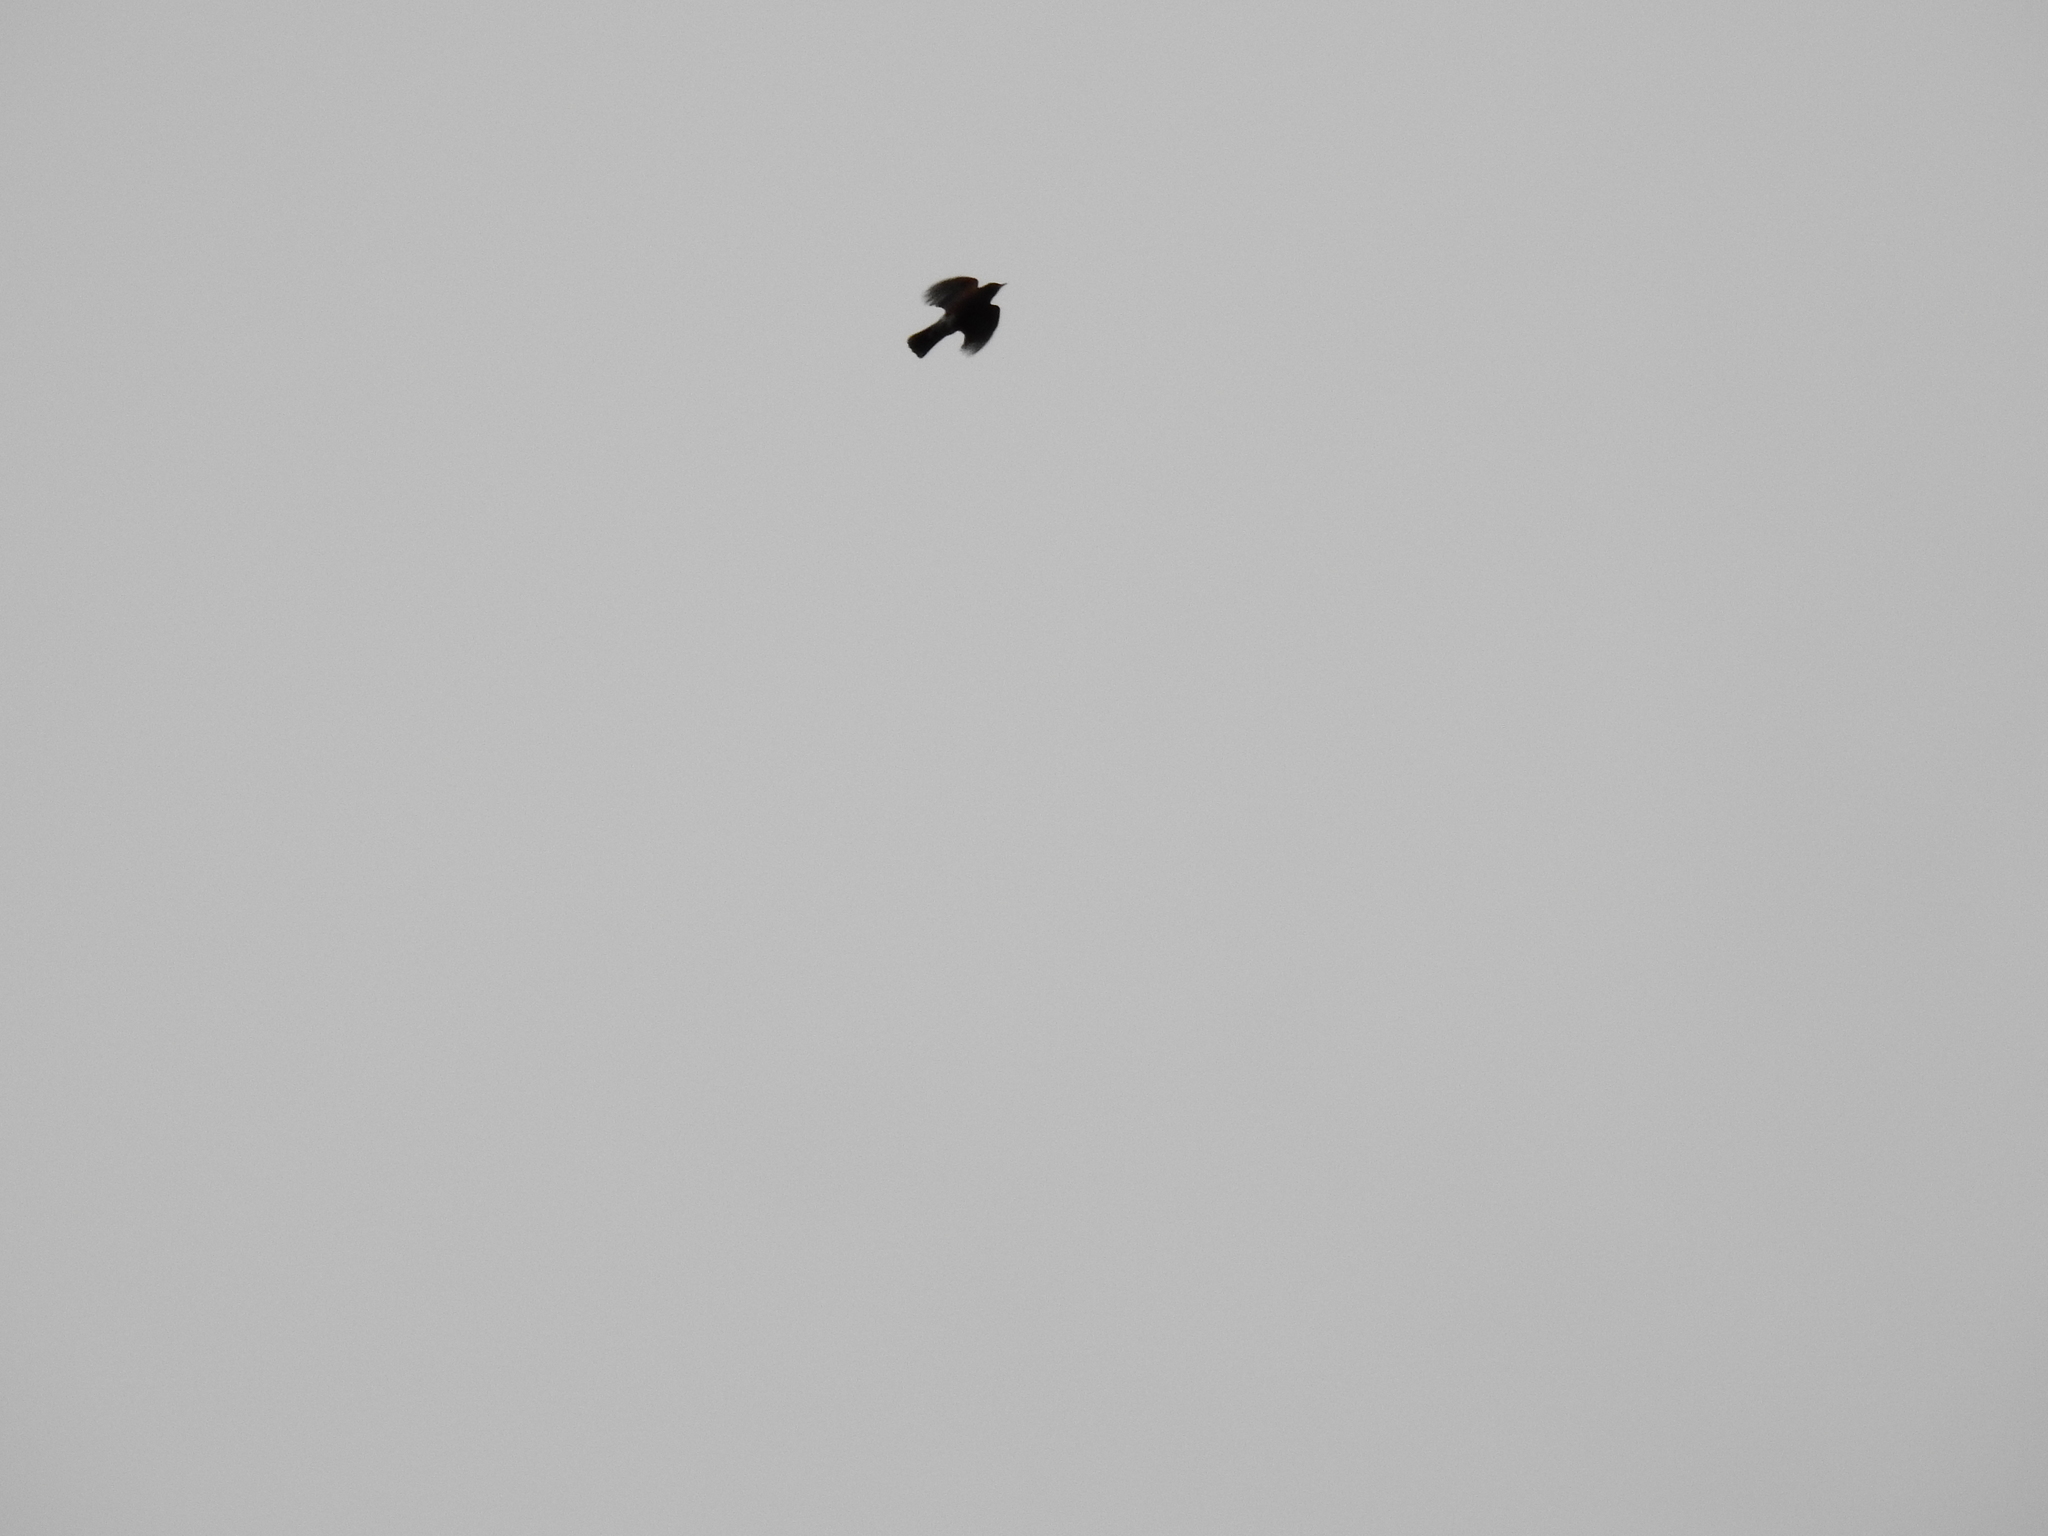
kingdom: Animalia
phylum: Chordata
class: Aves
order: Passeriformes
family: Turdidae
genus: Turdus
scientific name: Turdus migratorius
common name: American robin
